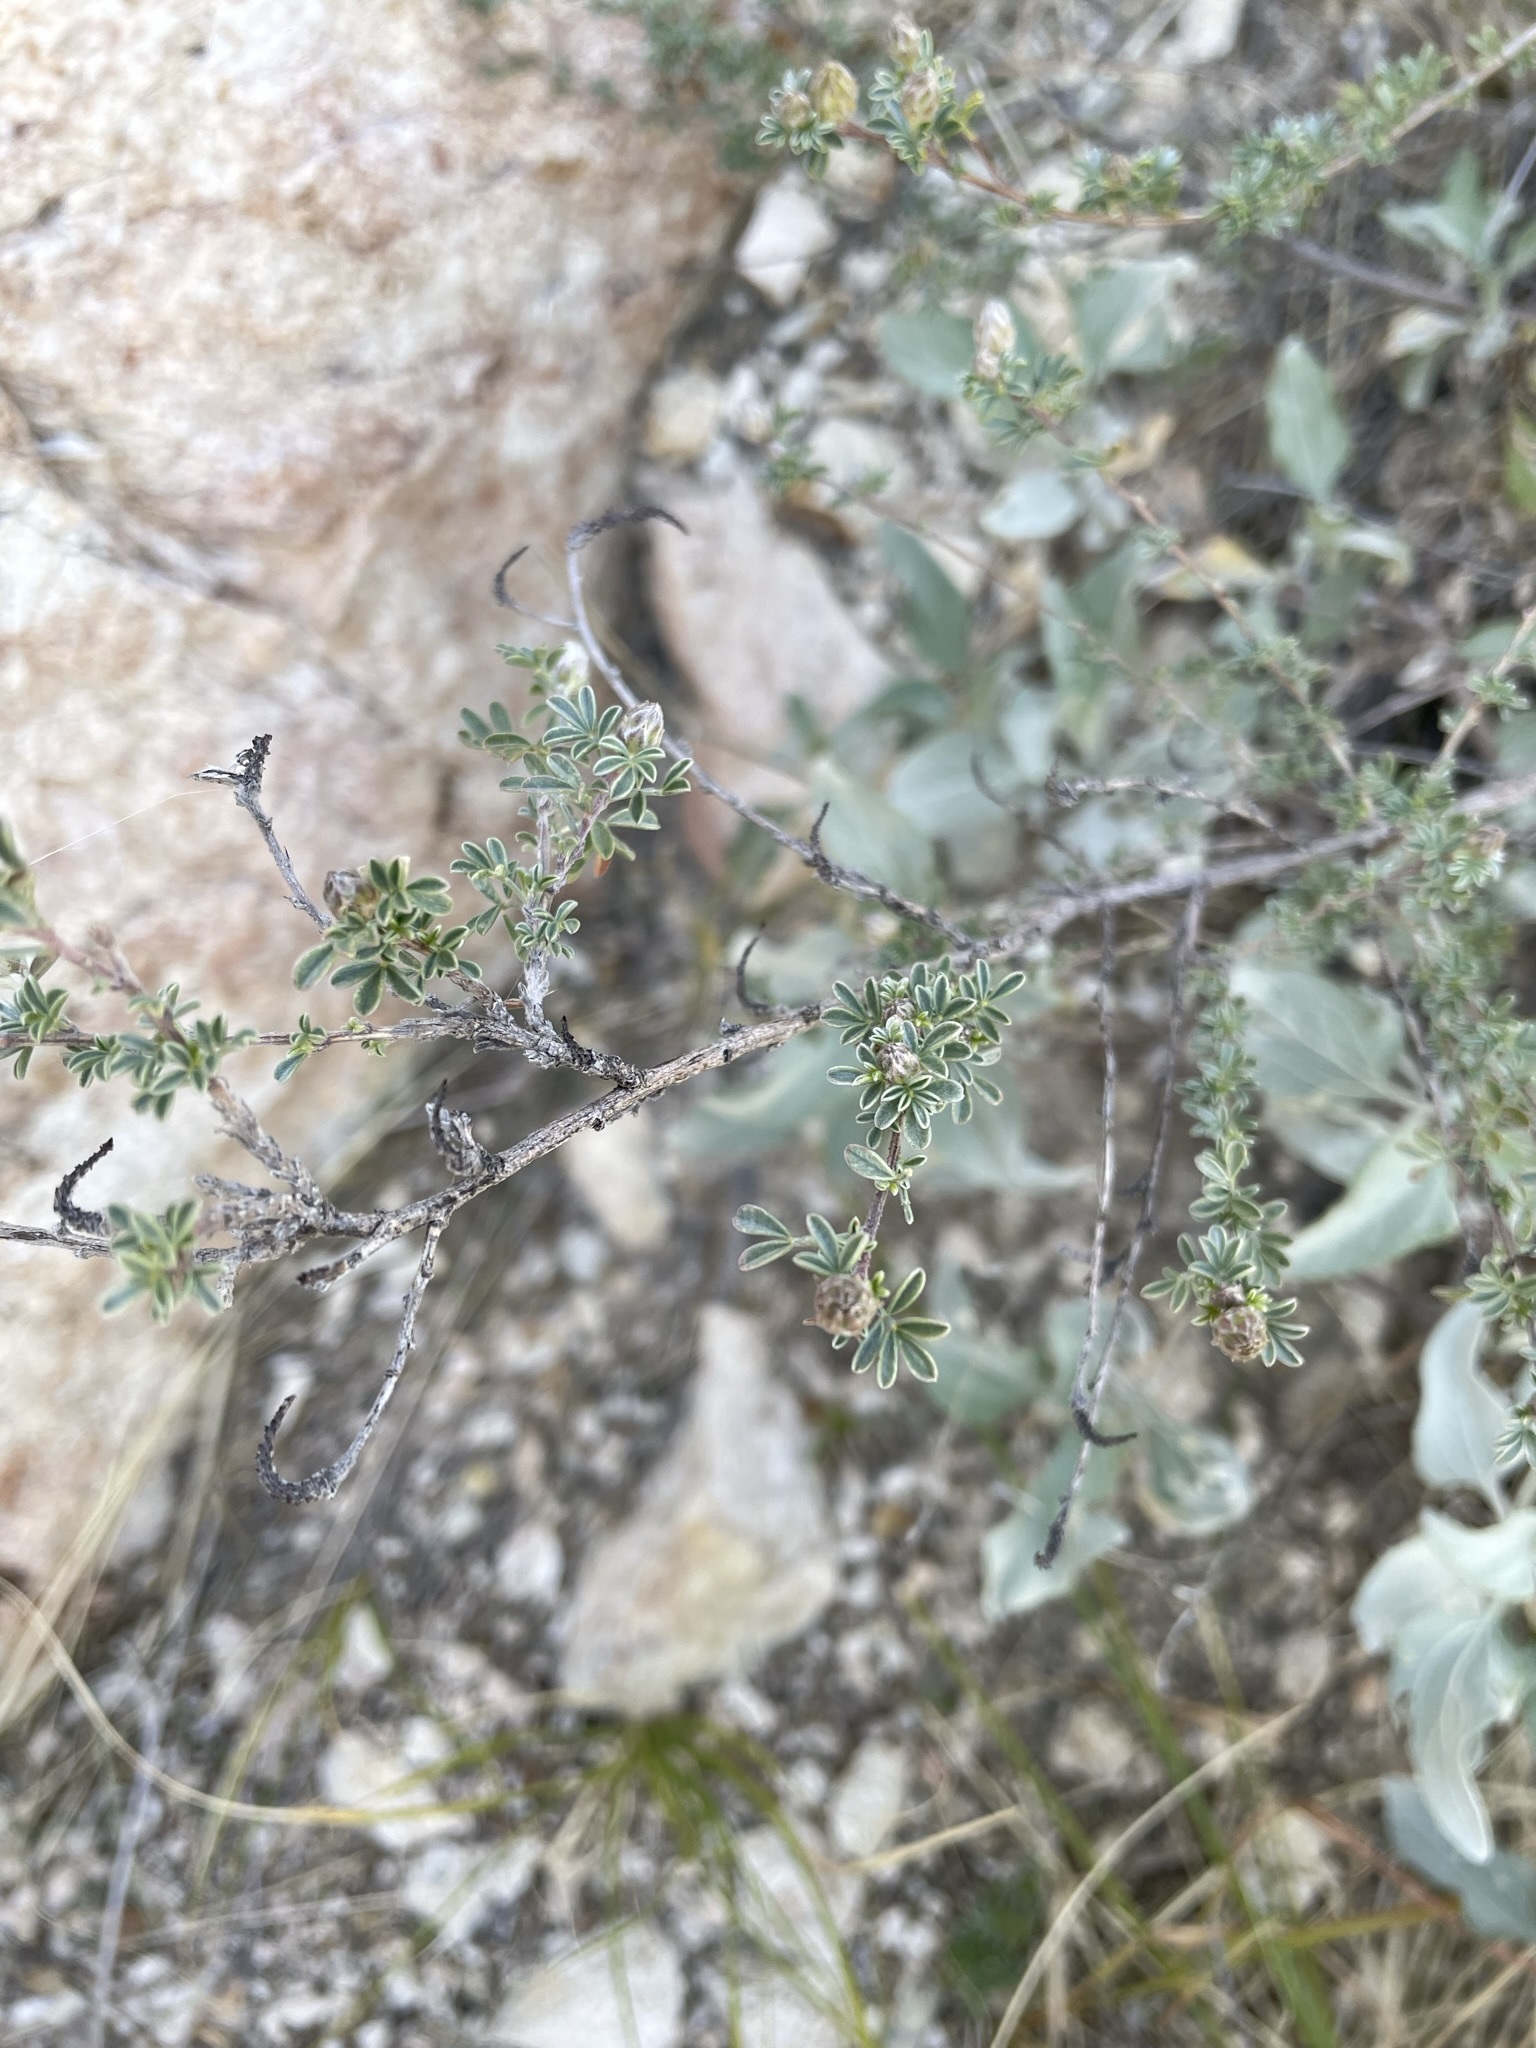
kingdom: Plantae
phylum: Tracheophyta
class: Magnoliopsida
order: Fabales
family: Fabaceae
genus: Dalea
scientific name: Dalea pulchra
